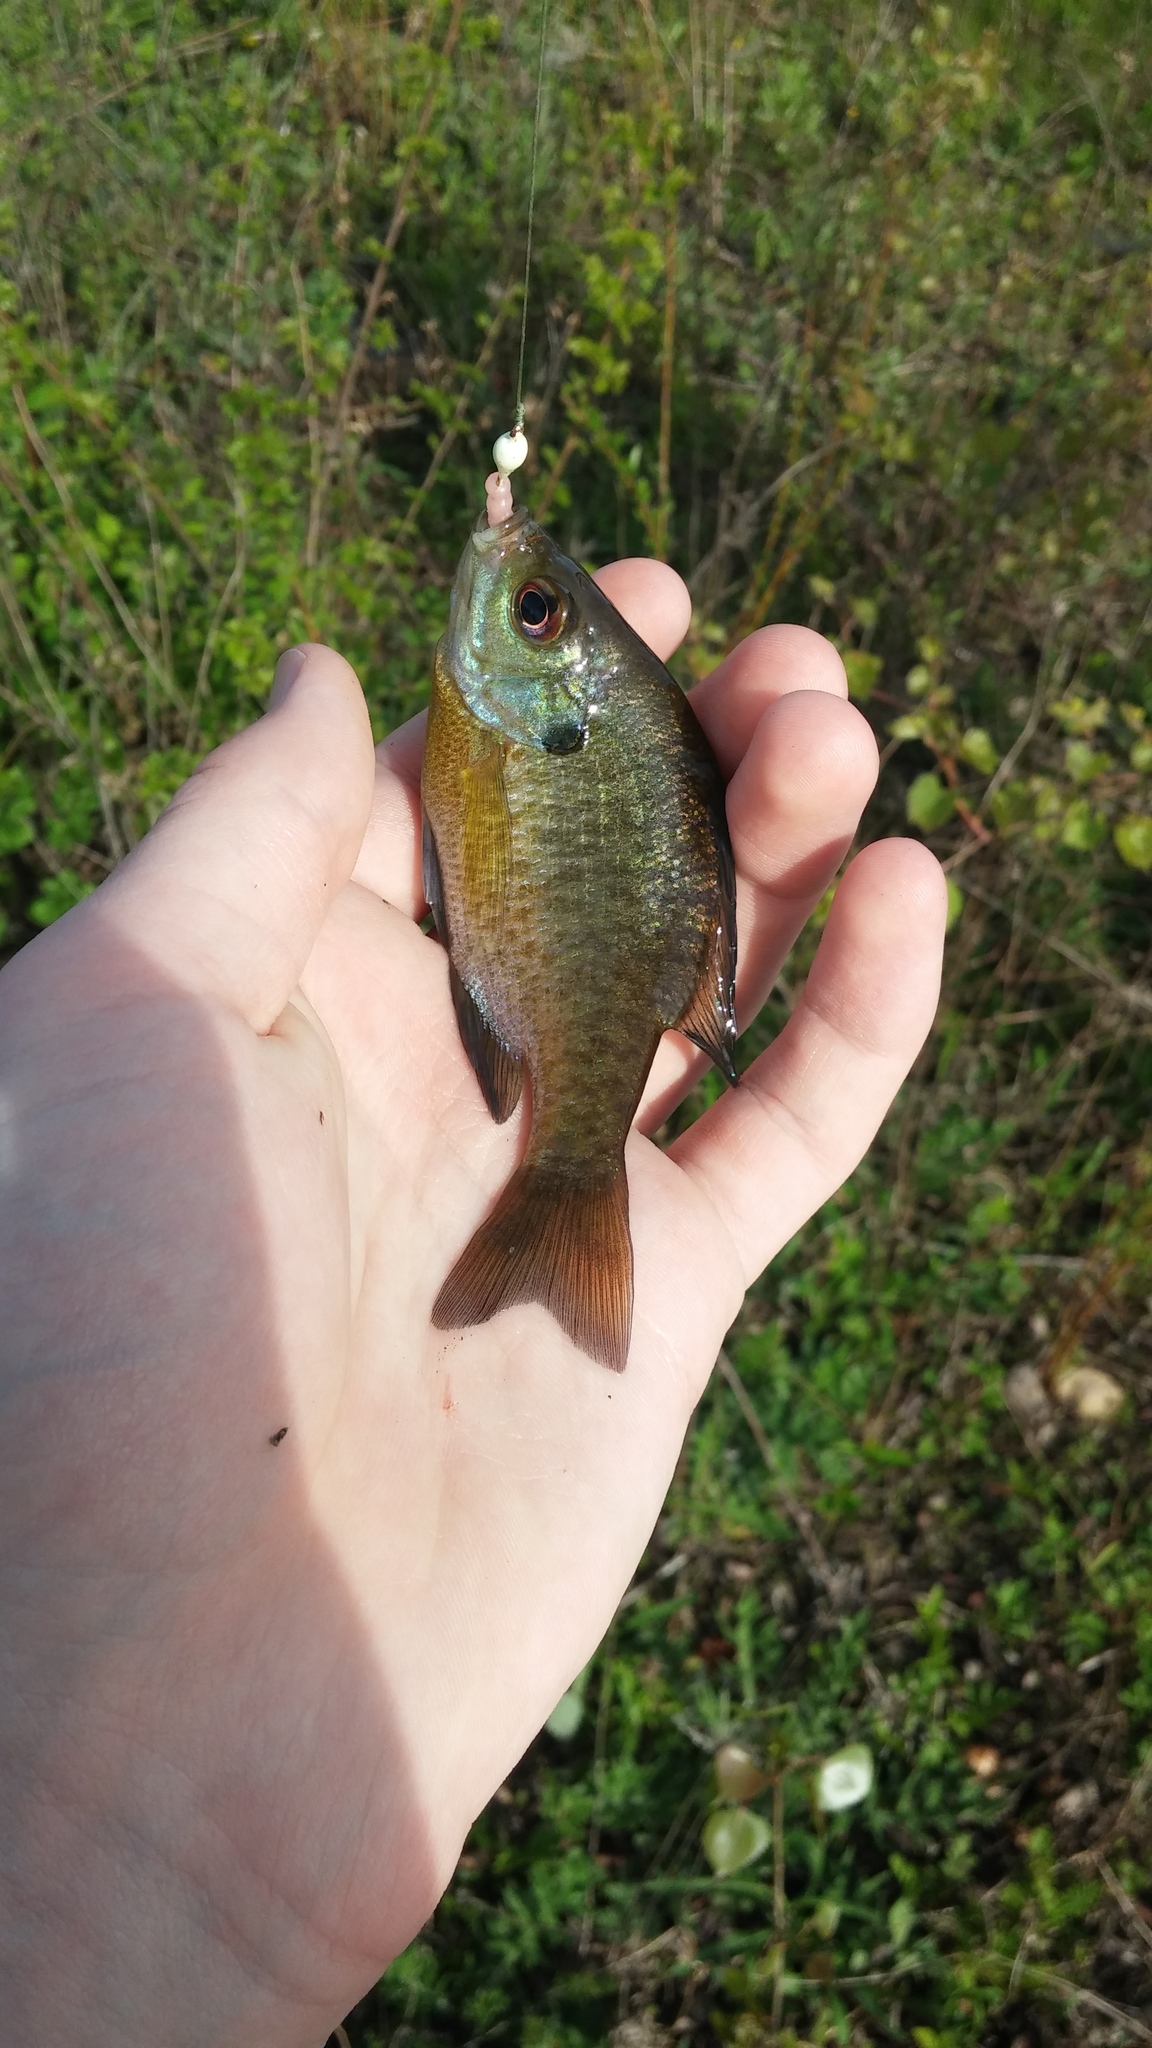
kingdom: Animalia
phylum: Chordata
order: Perciformes
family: Centrarchidae
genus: Lepomis
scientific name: Lepomis macrochirus
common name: Bluegill
